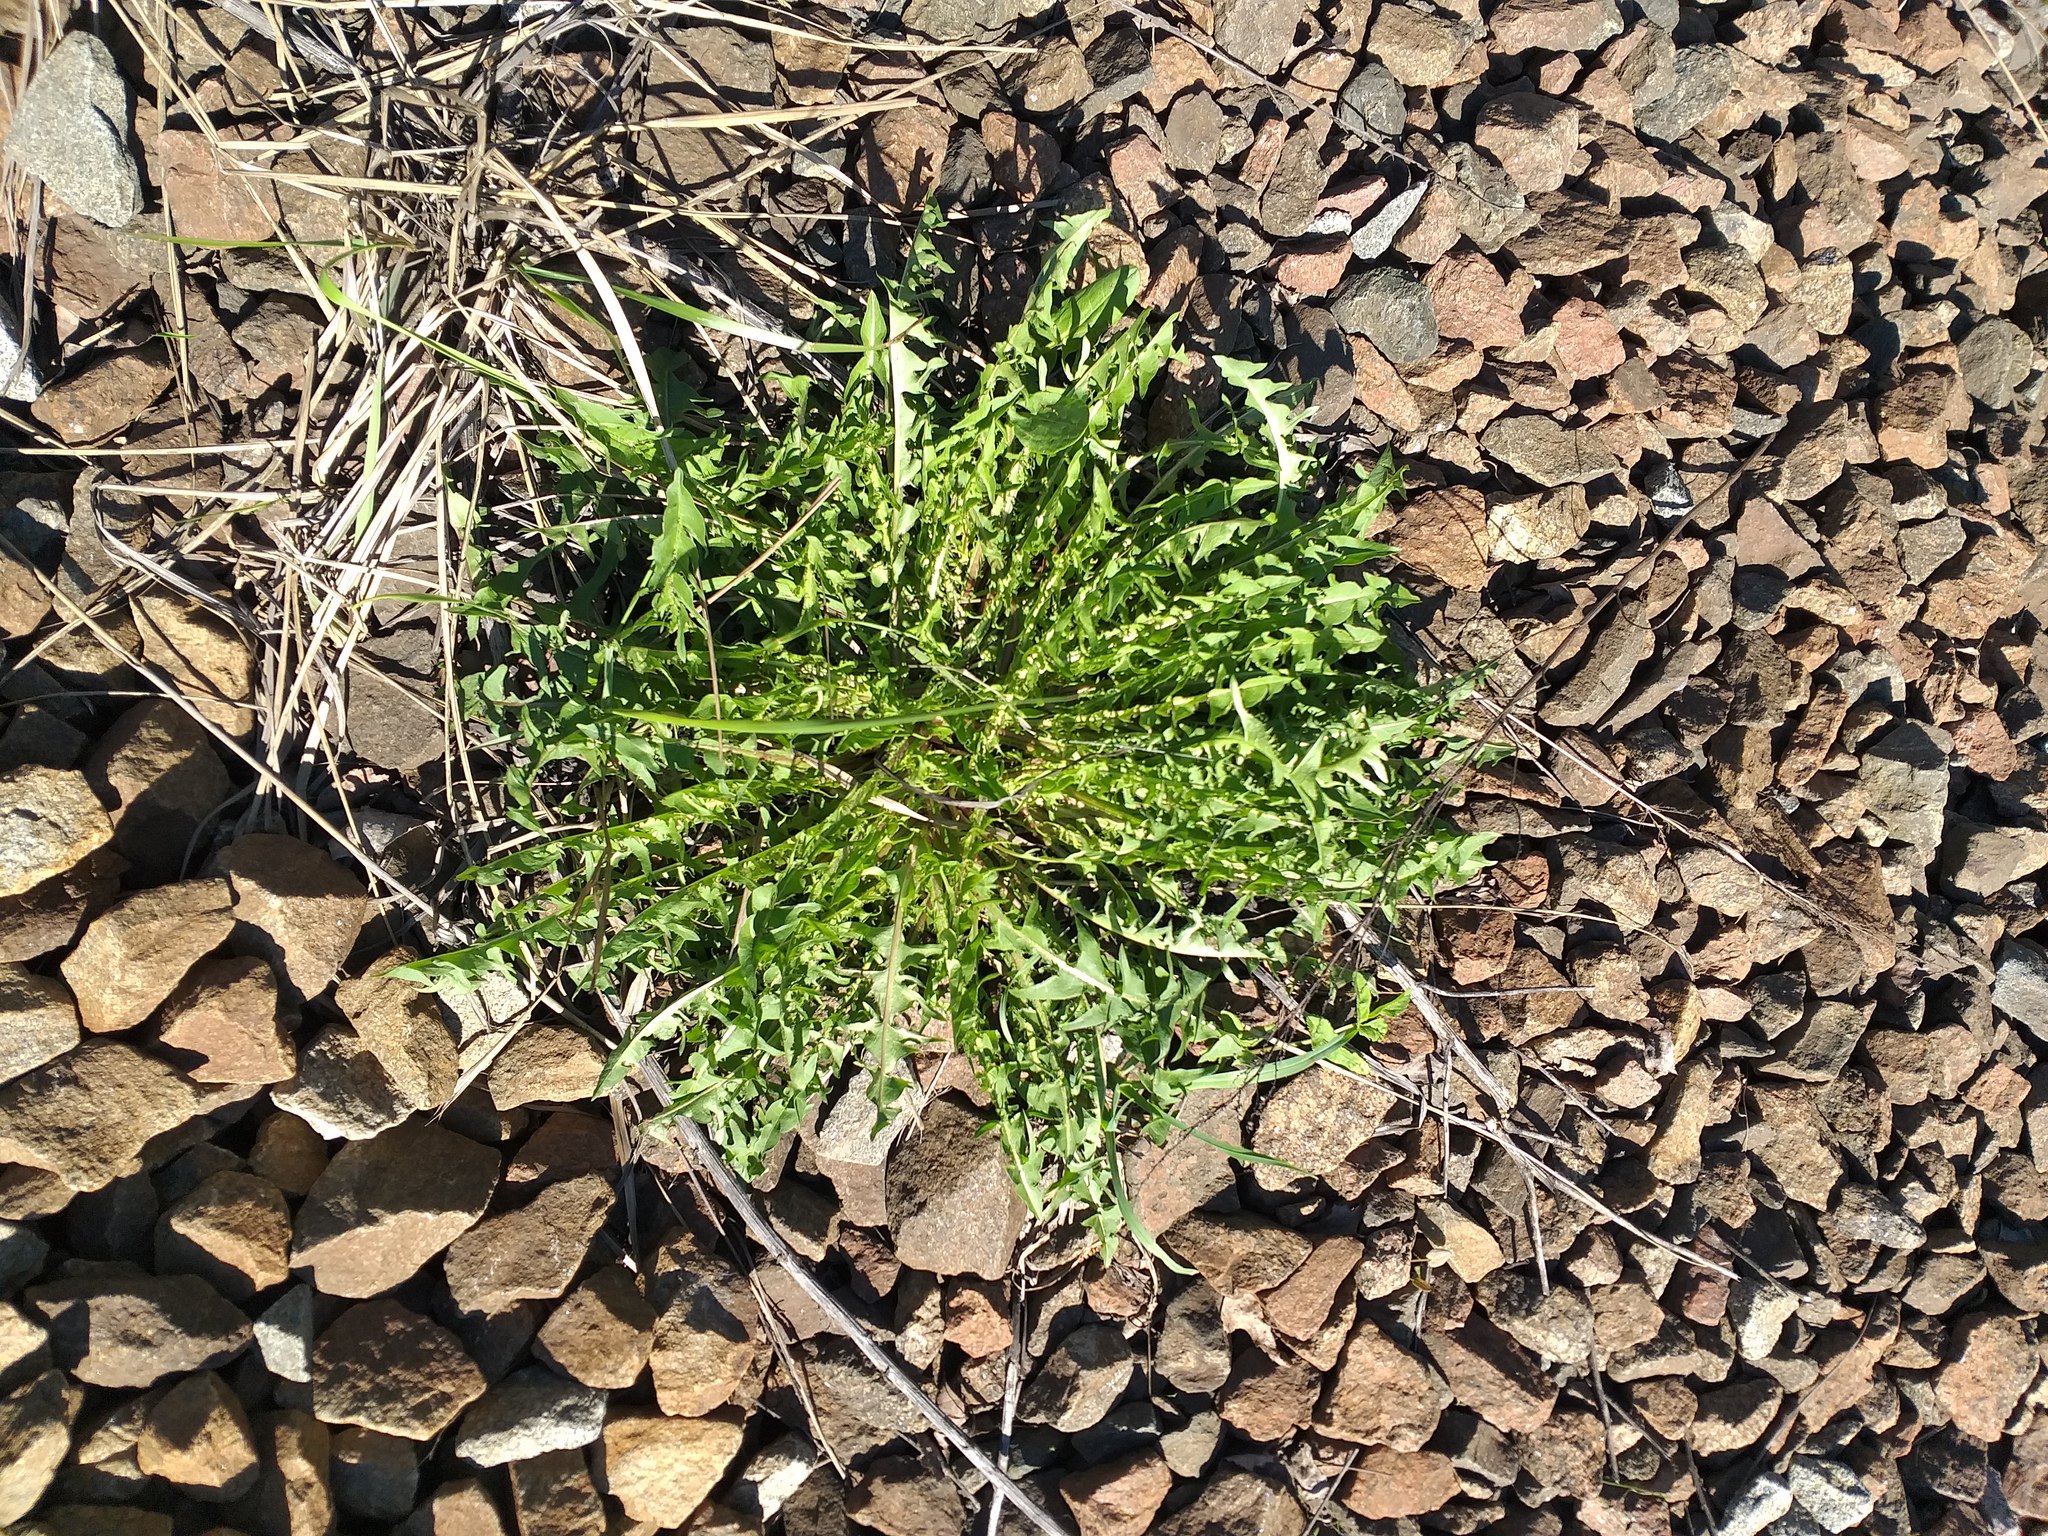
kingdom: Plantae
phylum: Tracheophyta
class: Magnoliopsida
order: Asterales
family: Asteraceae
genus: Taraxacum
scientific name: Taraxacum officinale
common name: Common dandelion
